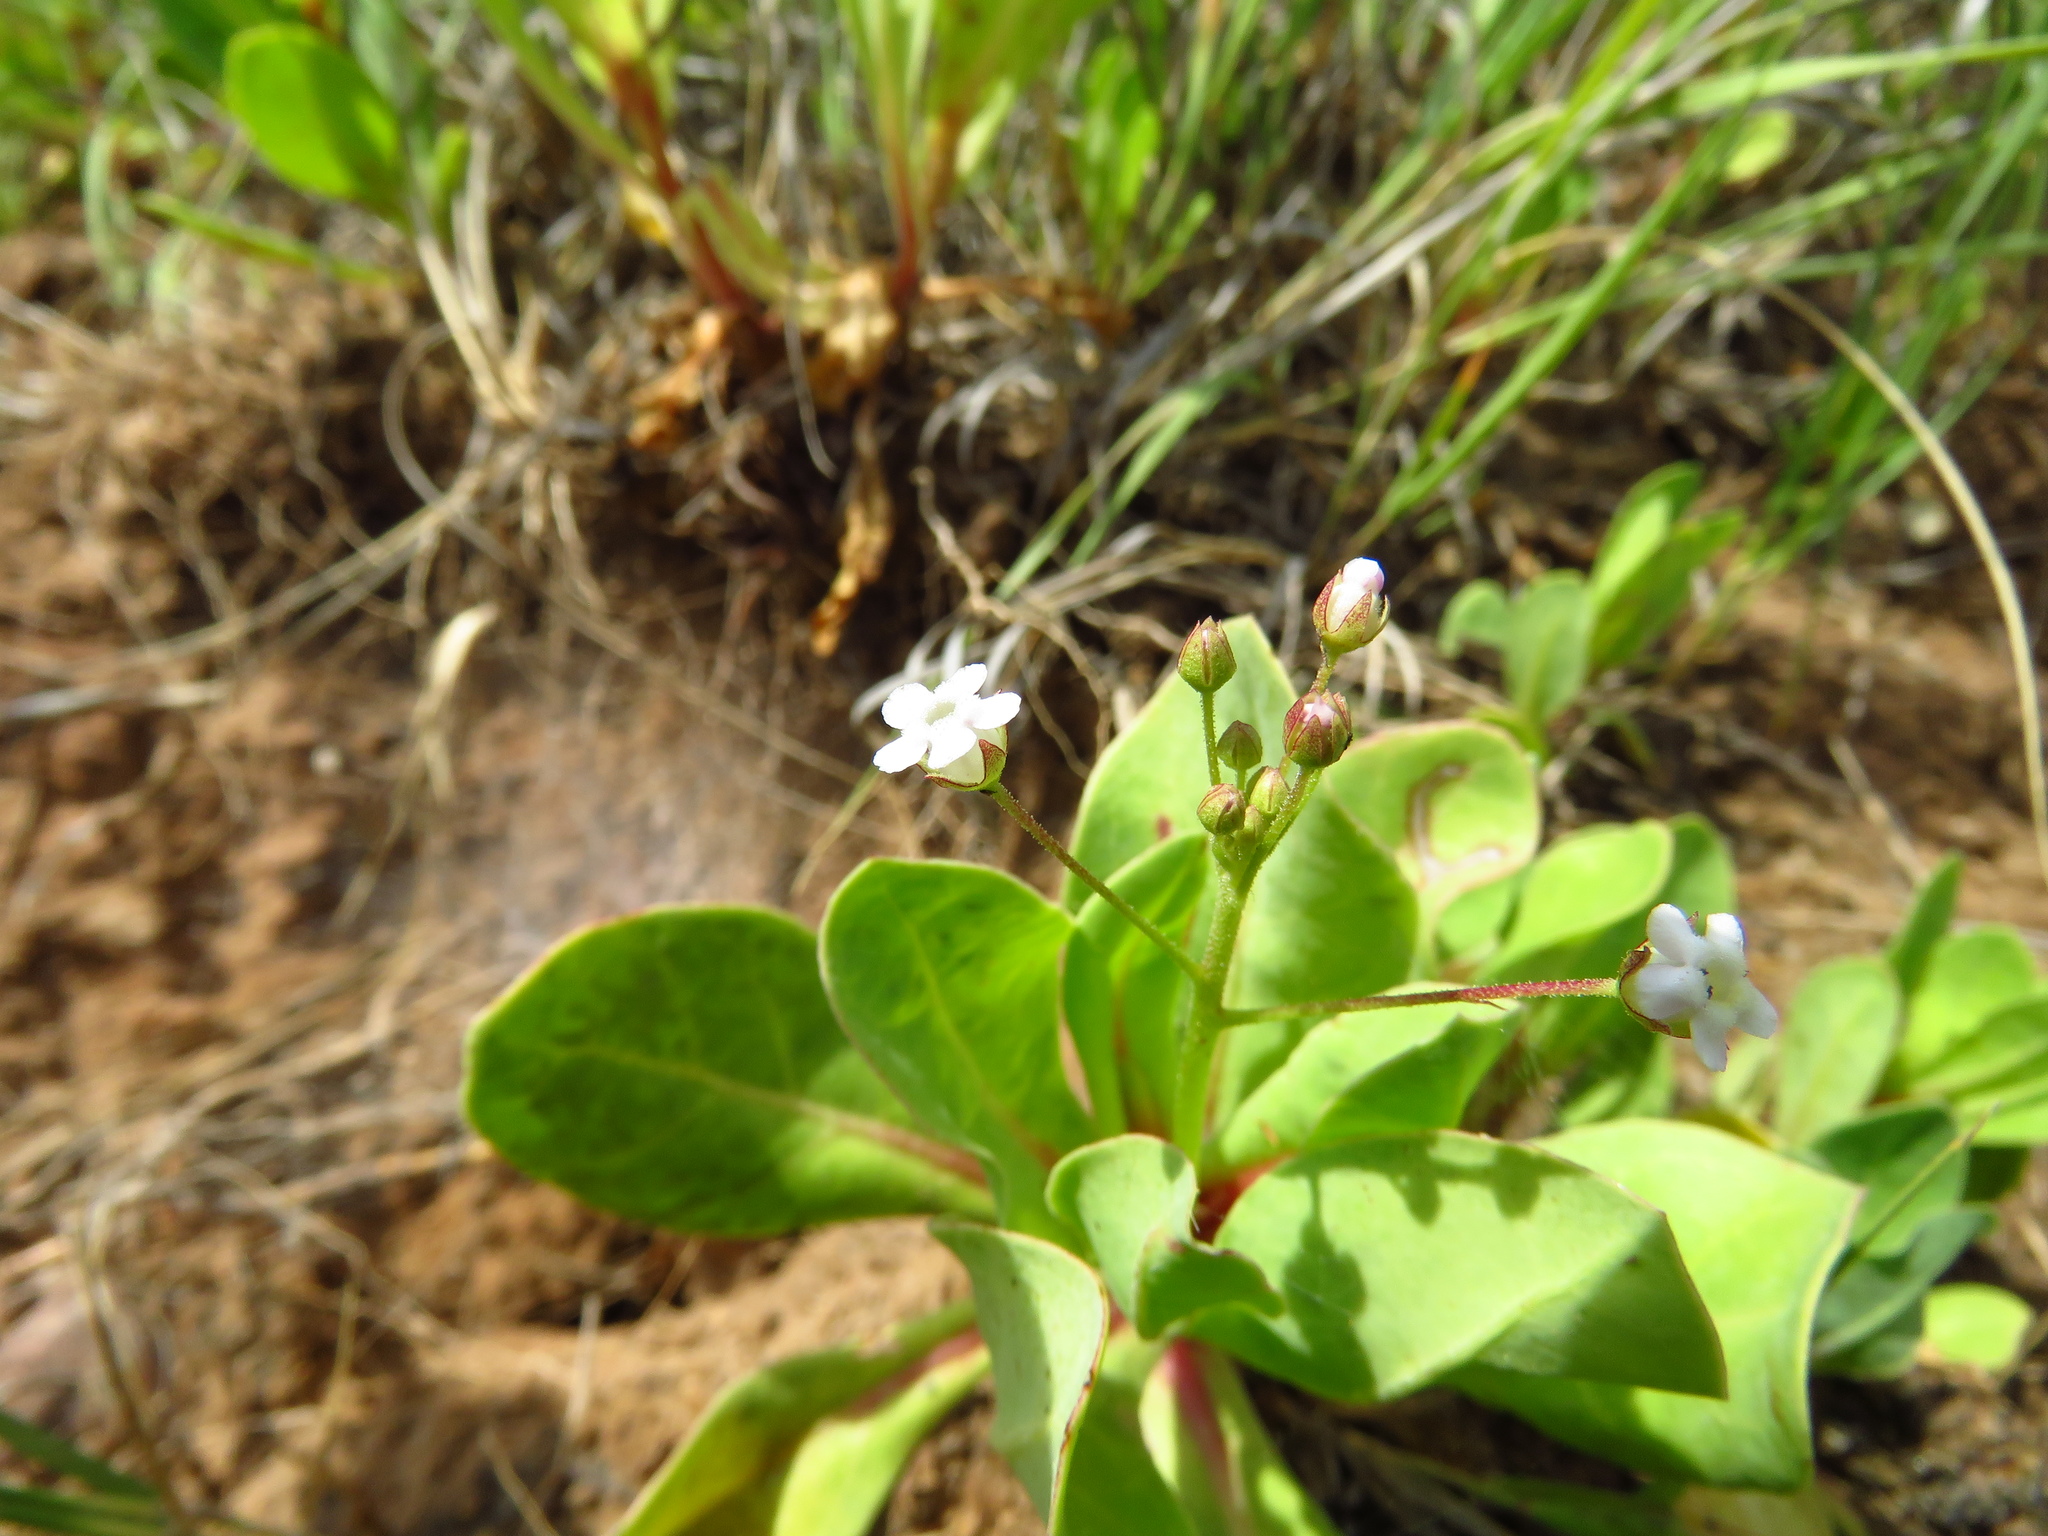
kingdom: Plantae
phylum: Tracheophyta
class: Magnoliopsida
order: Ericales
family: Primulaceae
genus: Samolus
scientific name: Samolus ebracteatus
